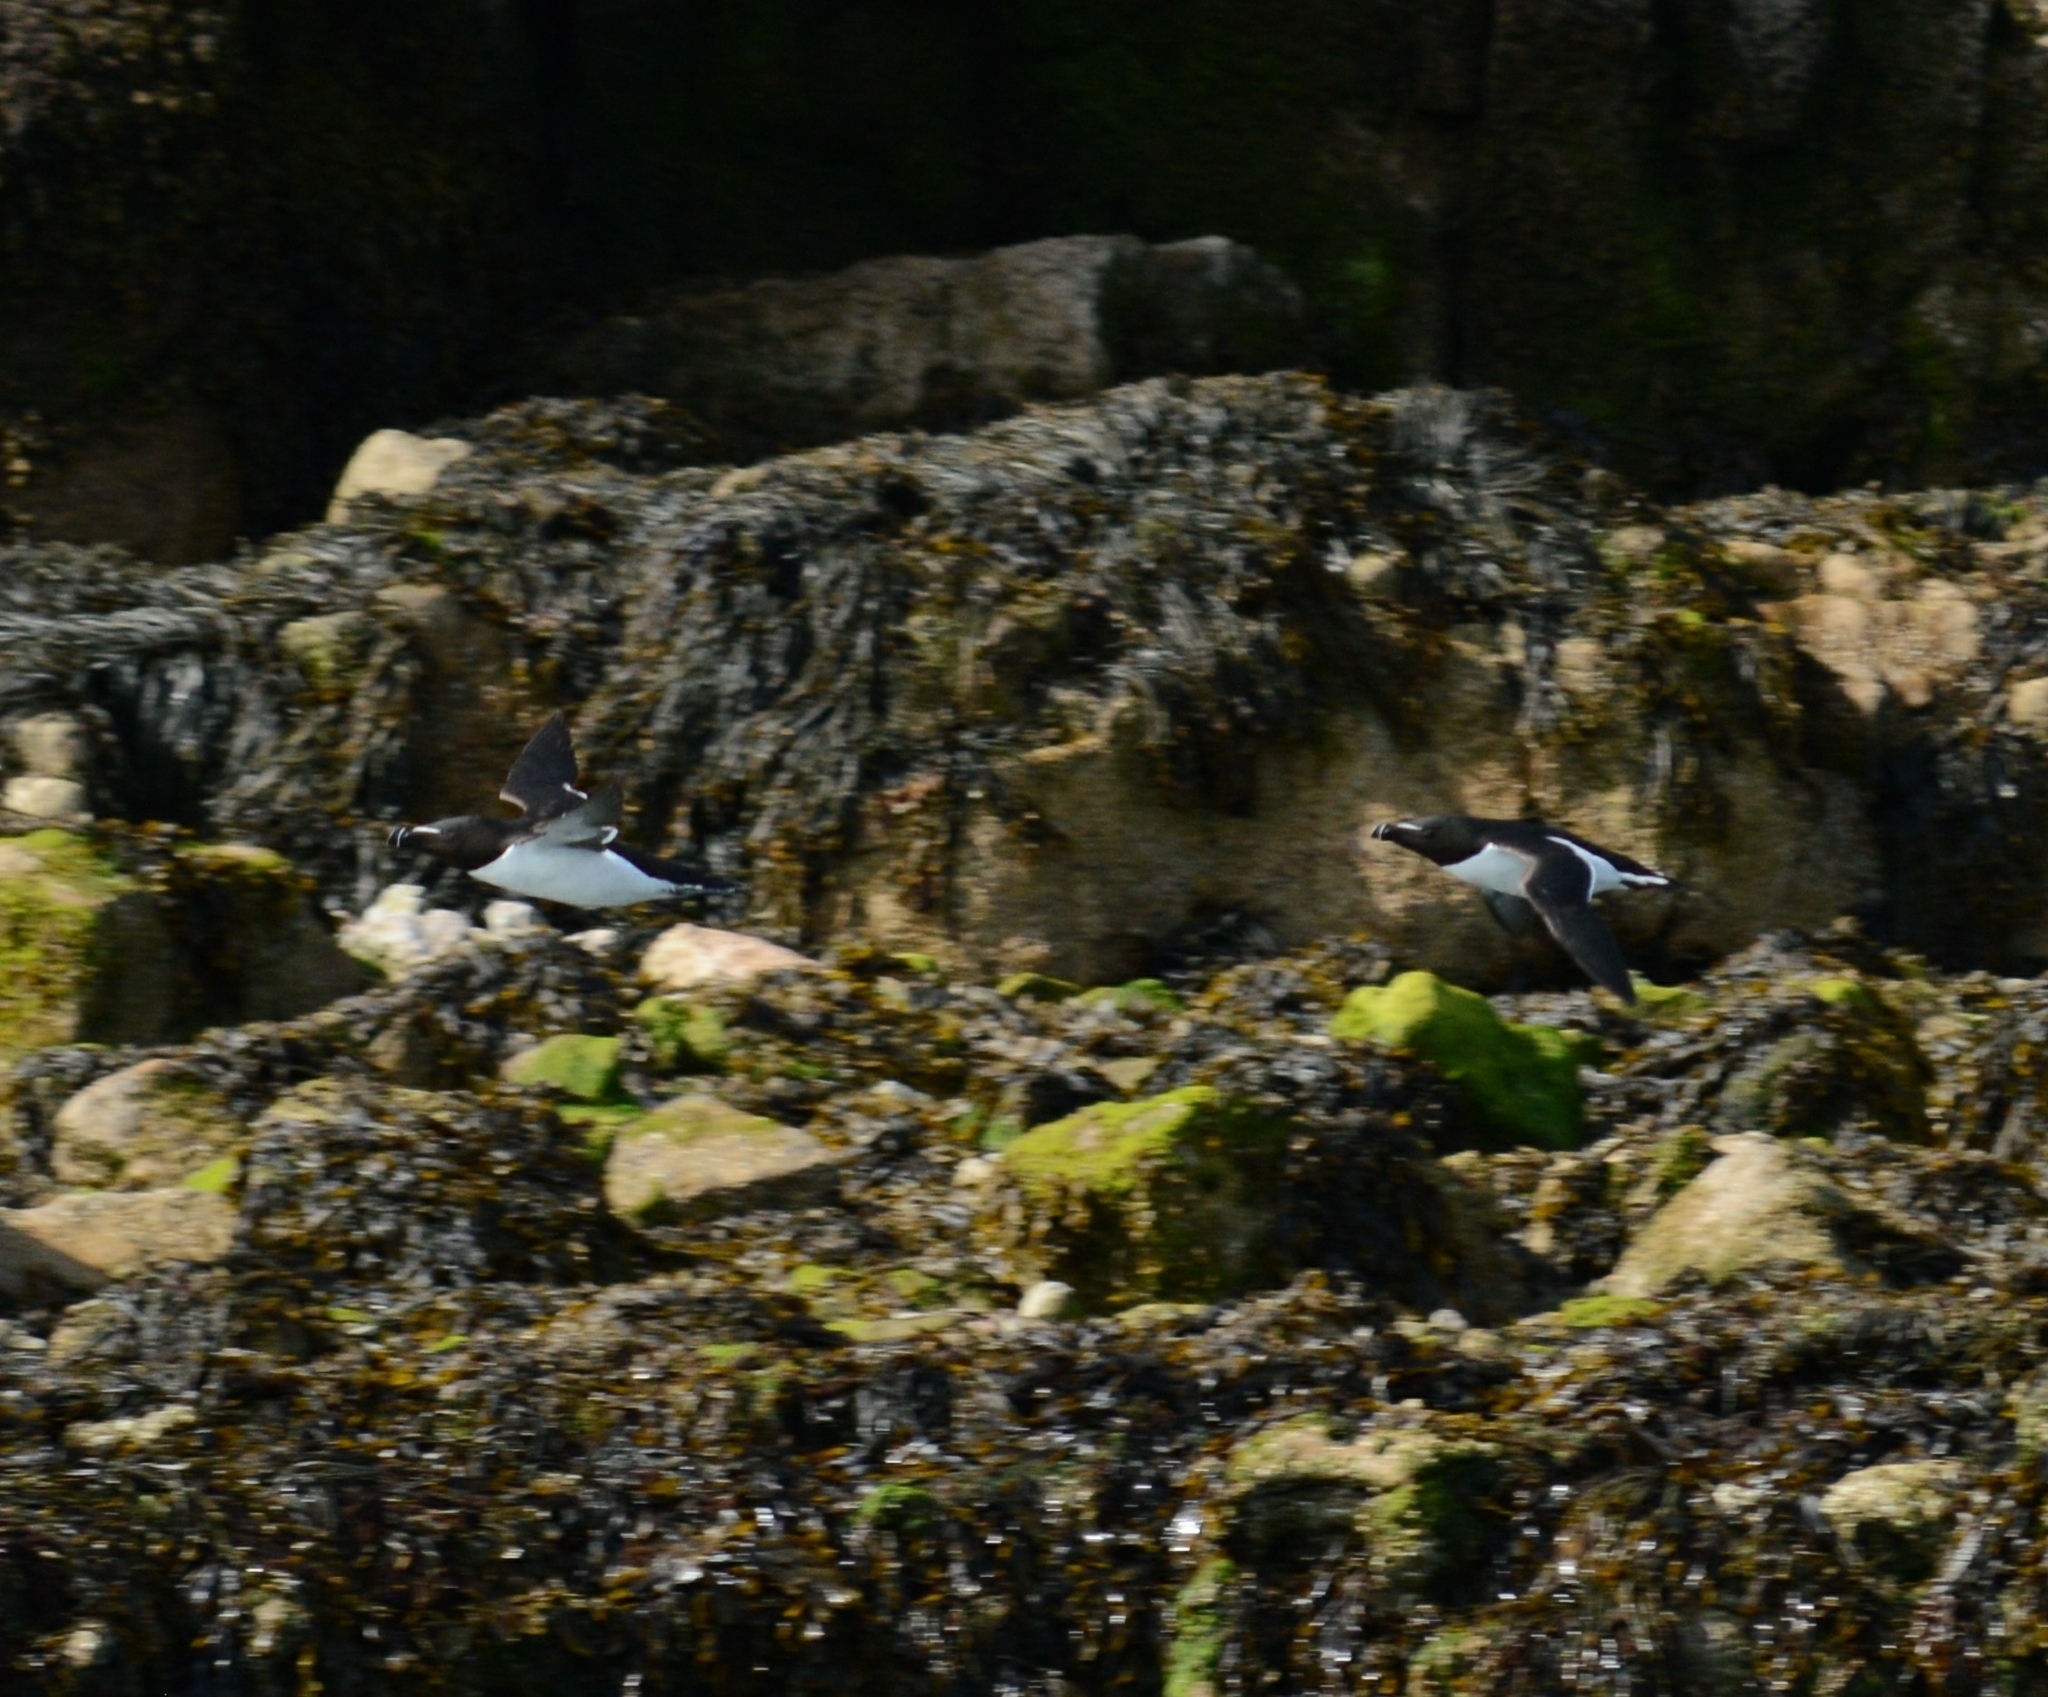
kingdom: Animalia
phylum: Chordata
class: Aves
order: Charadriiformes
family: Alcidae
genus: Alca
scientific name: Alca torda
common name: Razorbill
